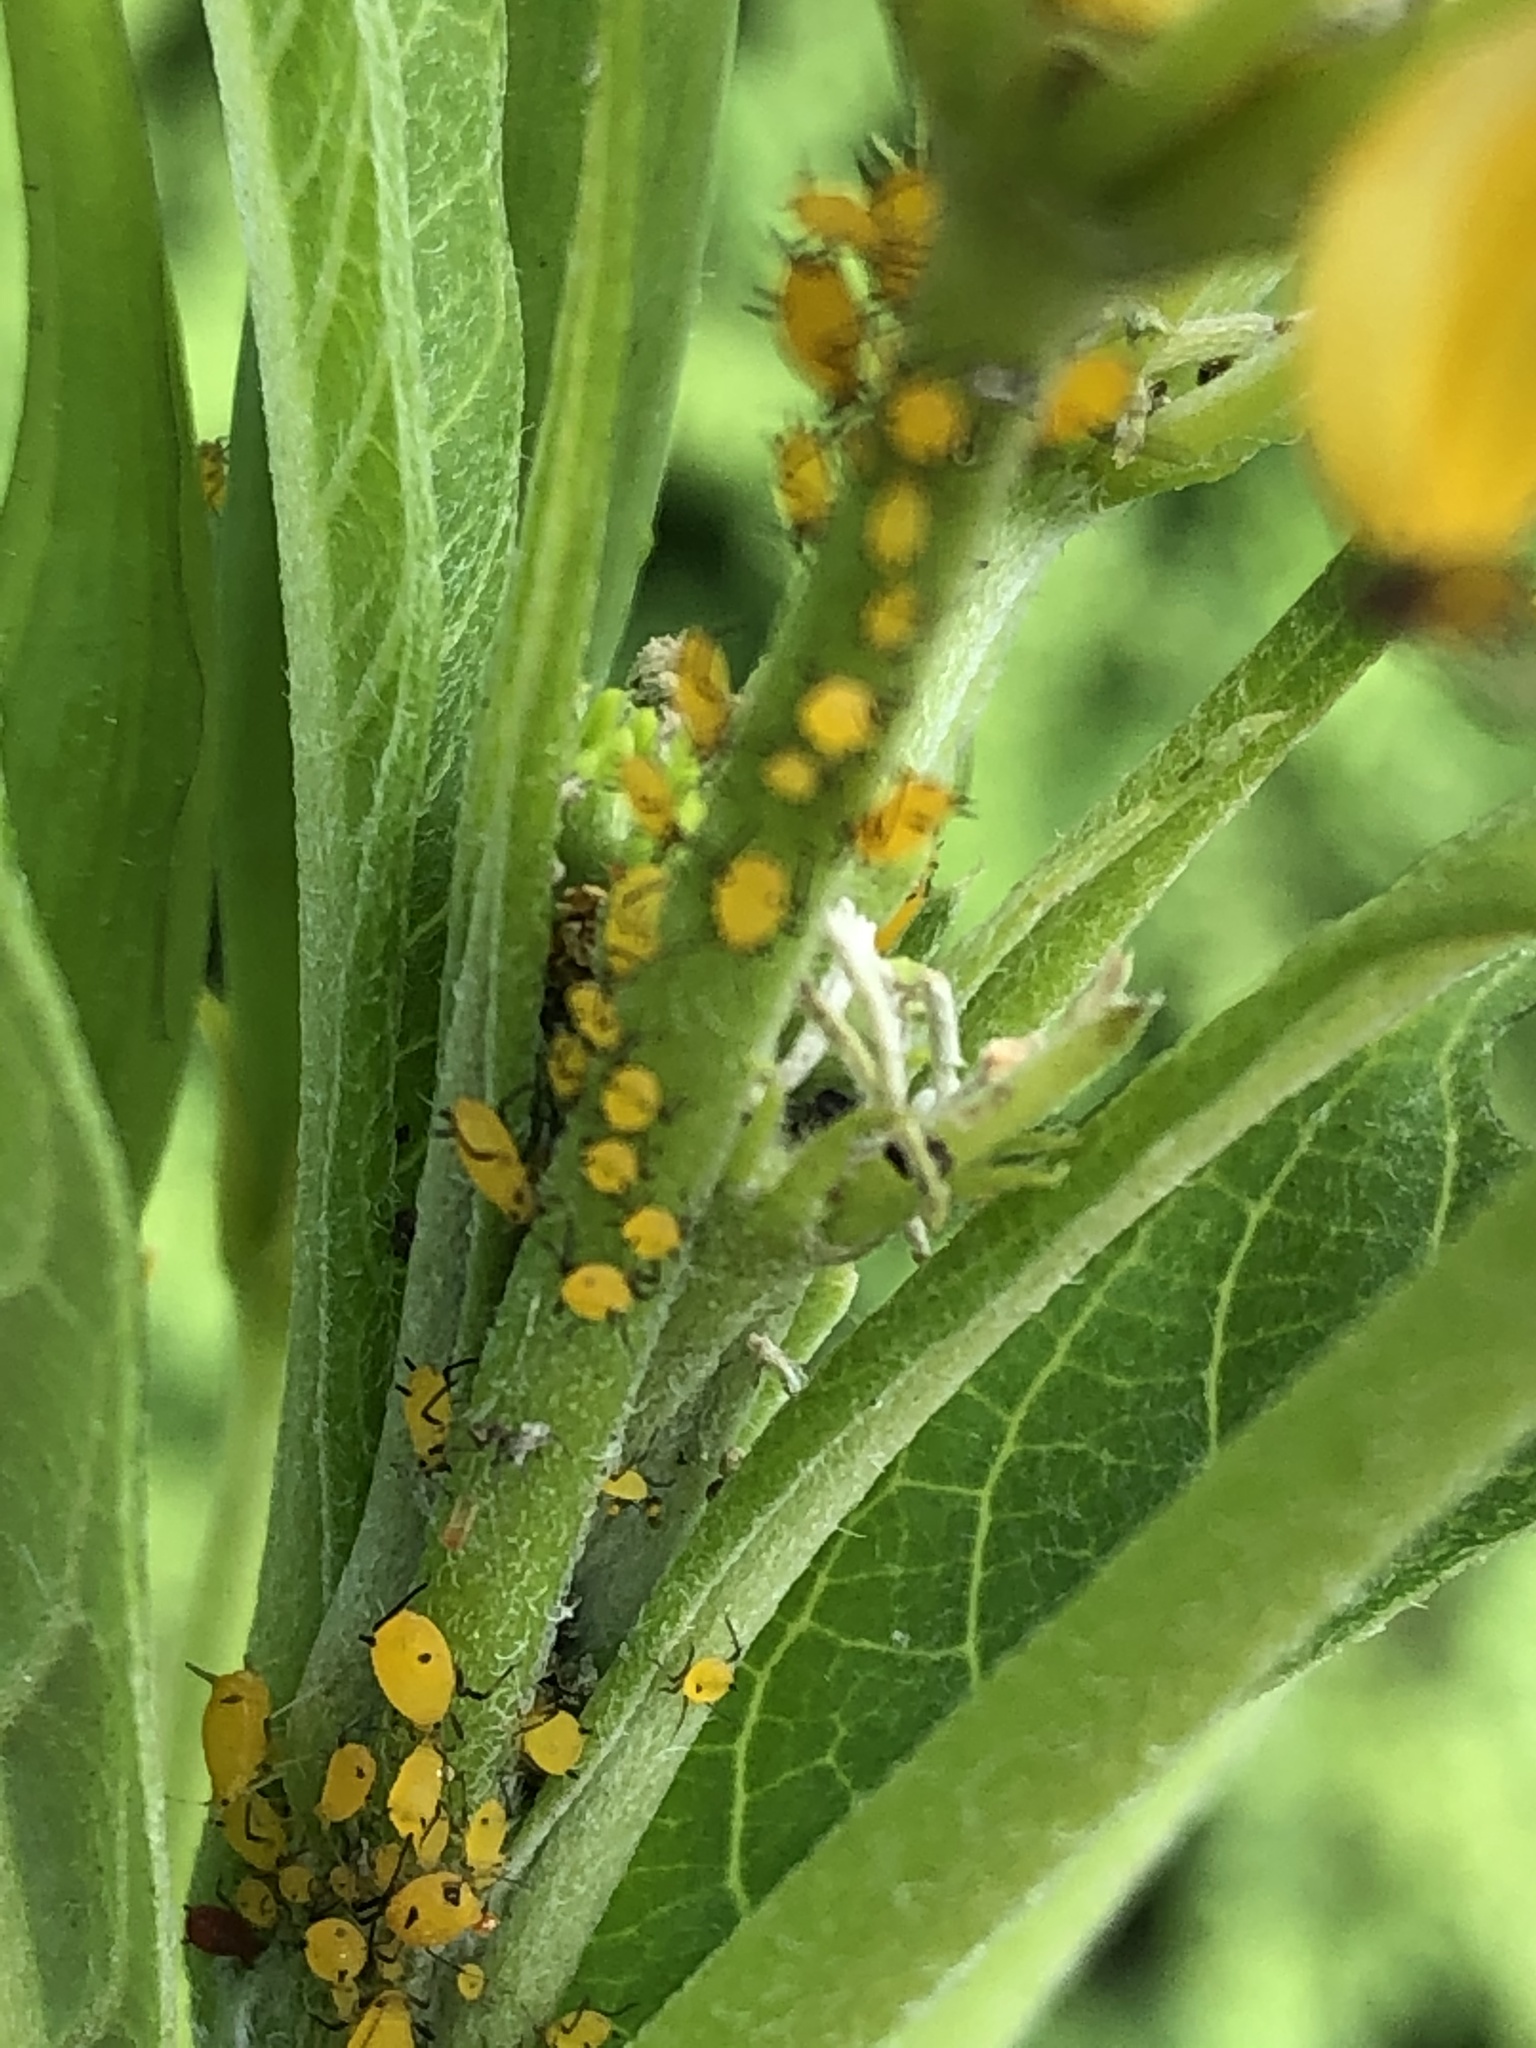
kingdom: Animalia
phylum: Arthropoda
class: Insecta
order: Hemiptera
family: Aphididae
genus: Aphis
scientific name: Aphis nerii
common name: Oleander aphid
